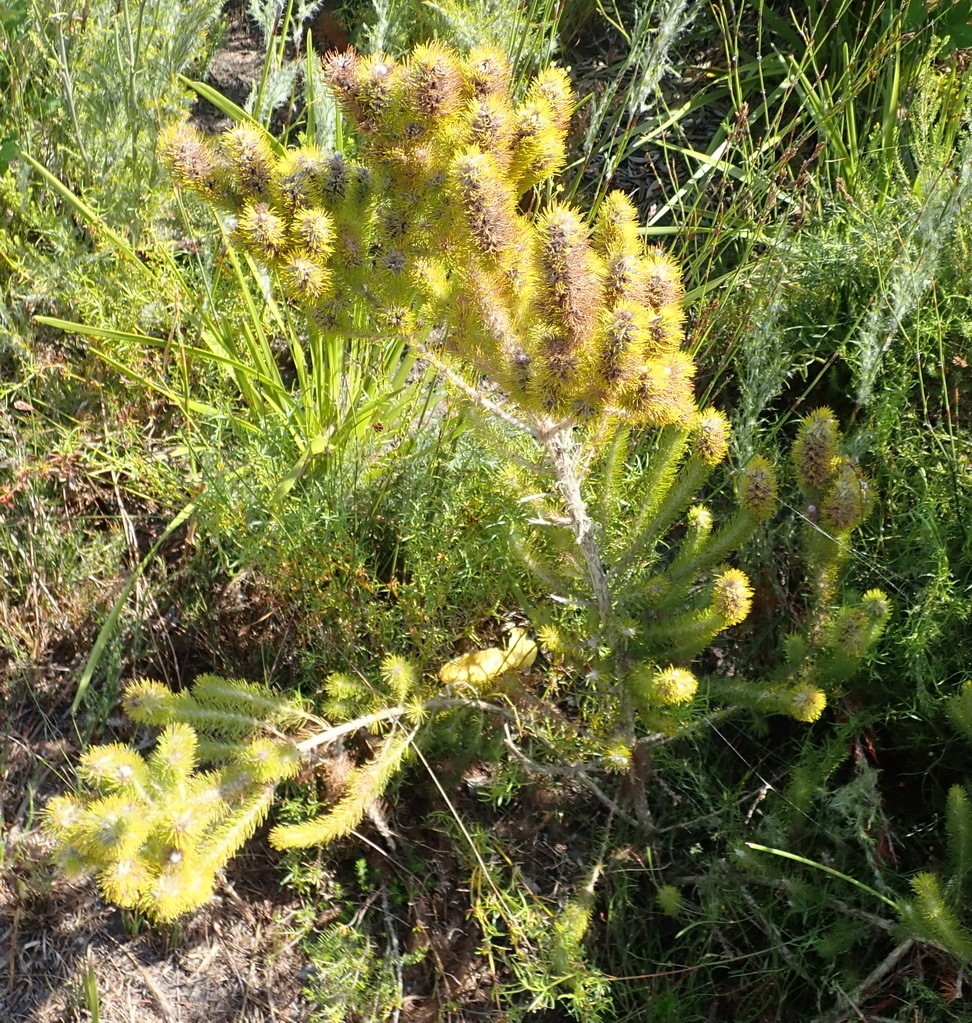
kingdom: Plantae
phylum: Tracheophyta
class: Magnoliopsida
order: Fabales
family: Fabaceae
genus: Aspalathus
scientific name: Aspalathus alopecurus
